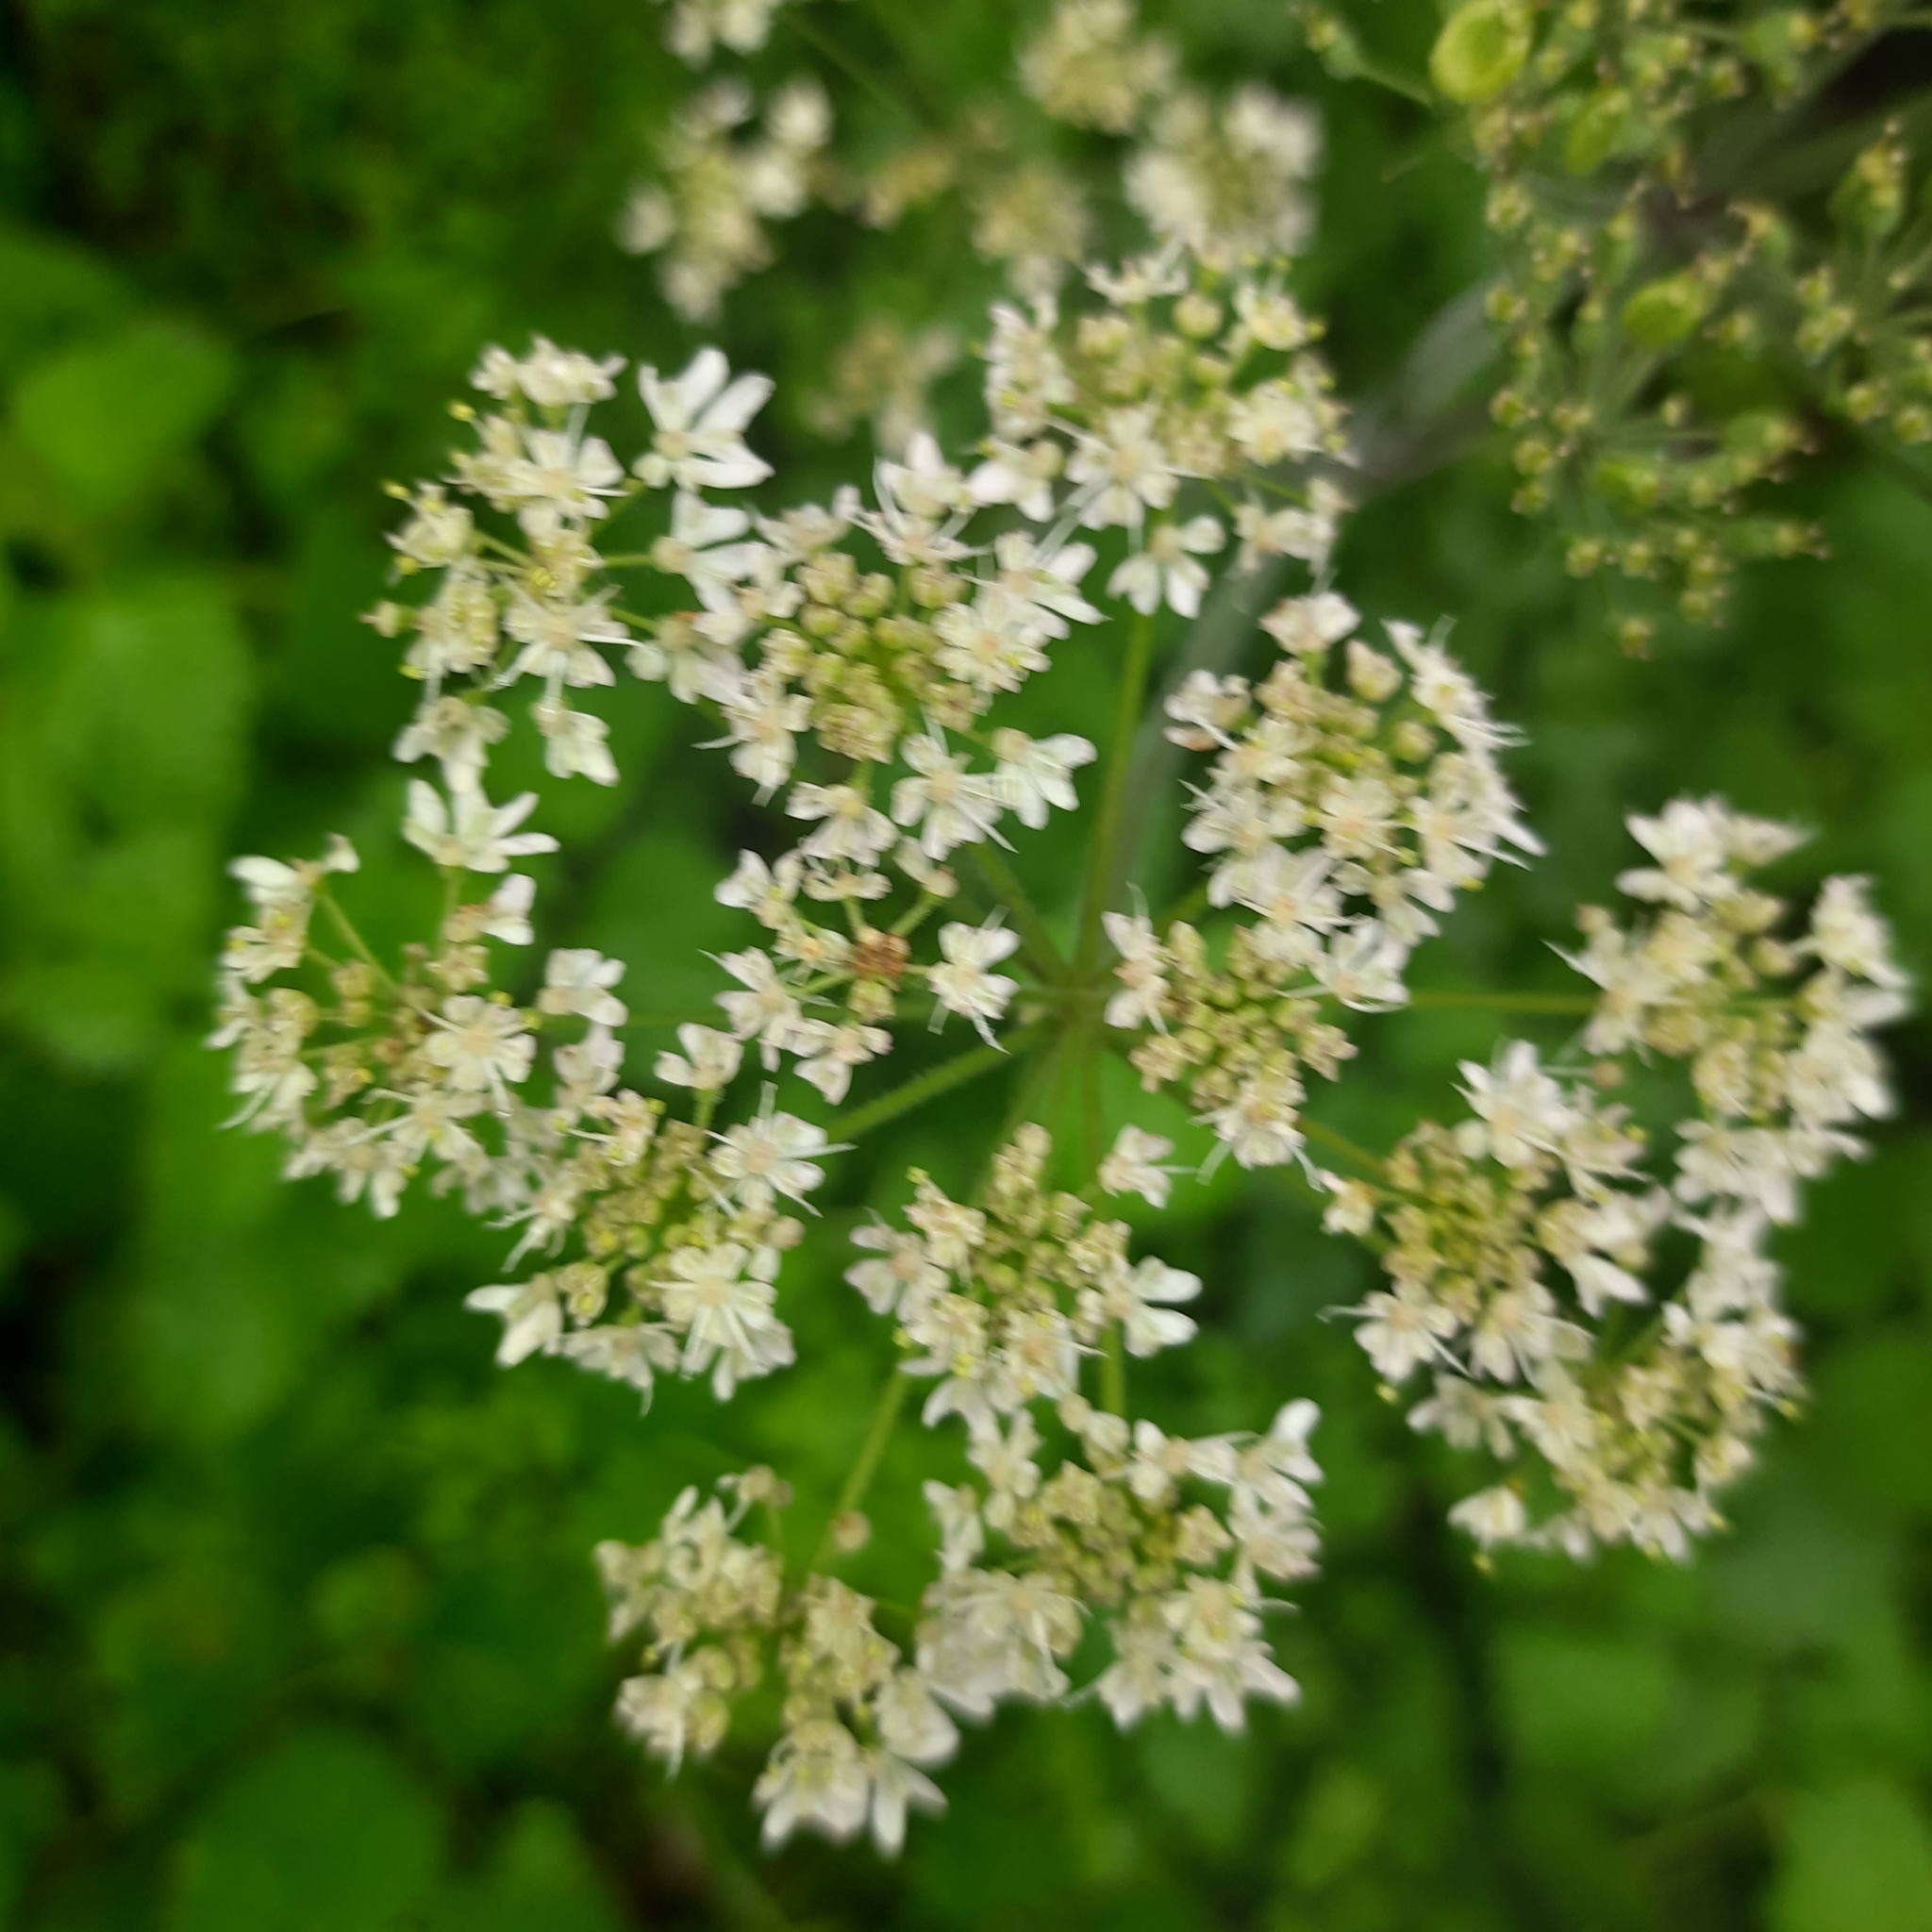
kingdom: Plantae
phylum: Tracheophyta
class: Magnoliopsida
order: Apiales
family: Apiaceae
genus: Heracleum
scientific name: Heracleum sphondylium
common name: Hogweed
